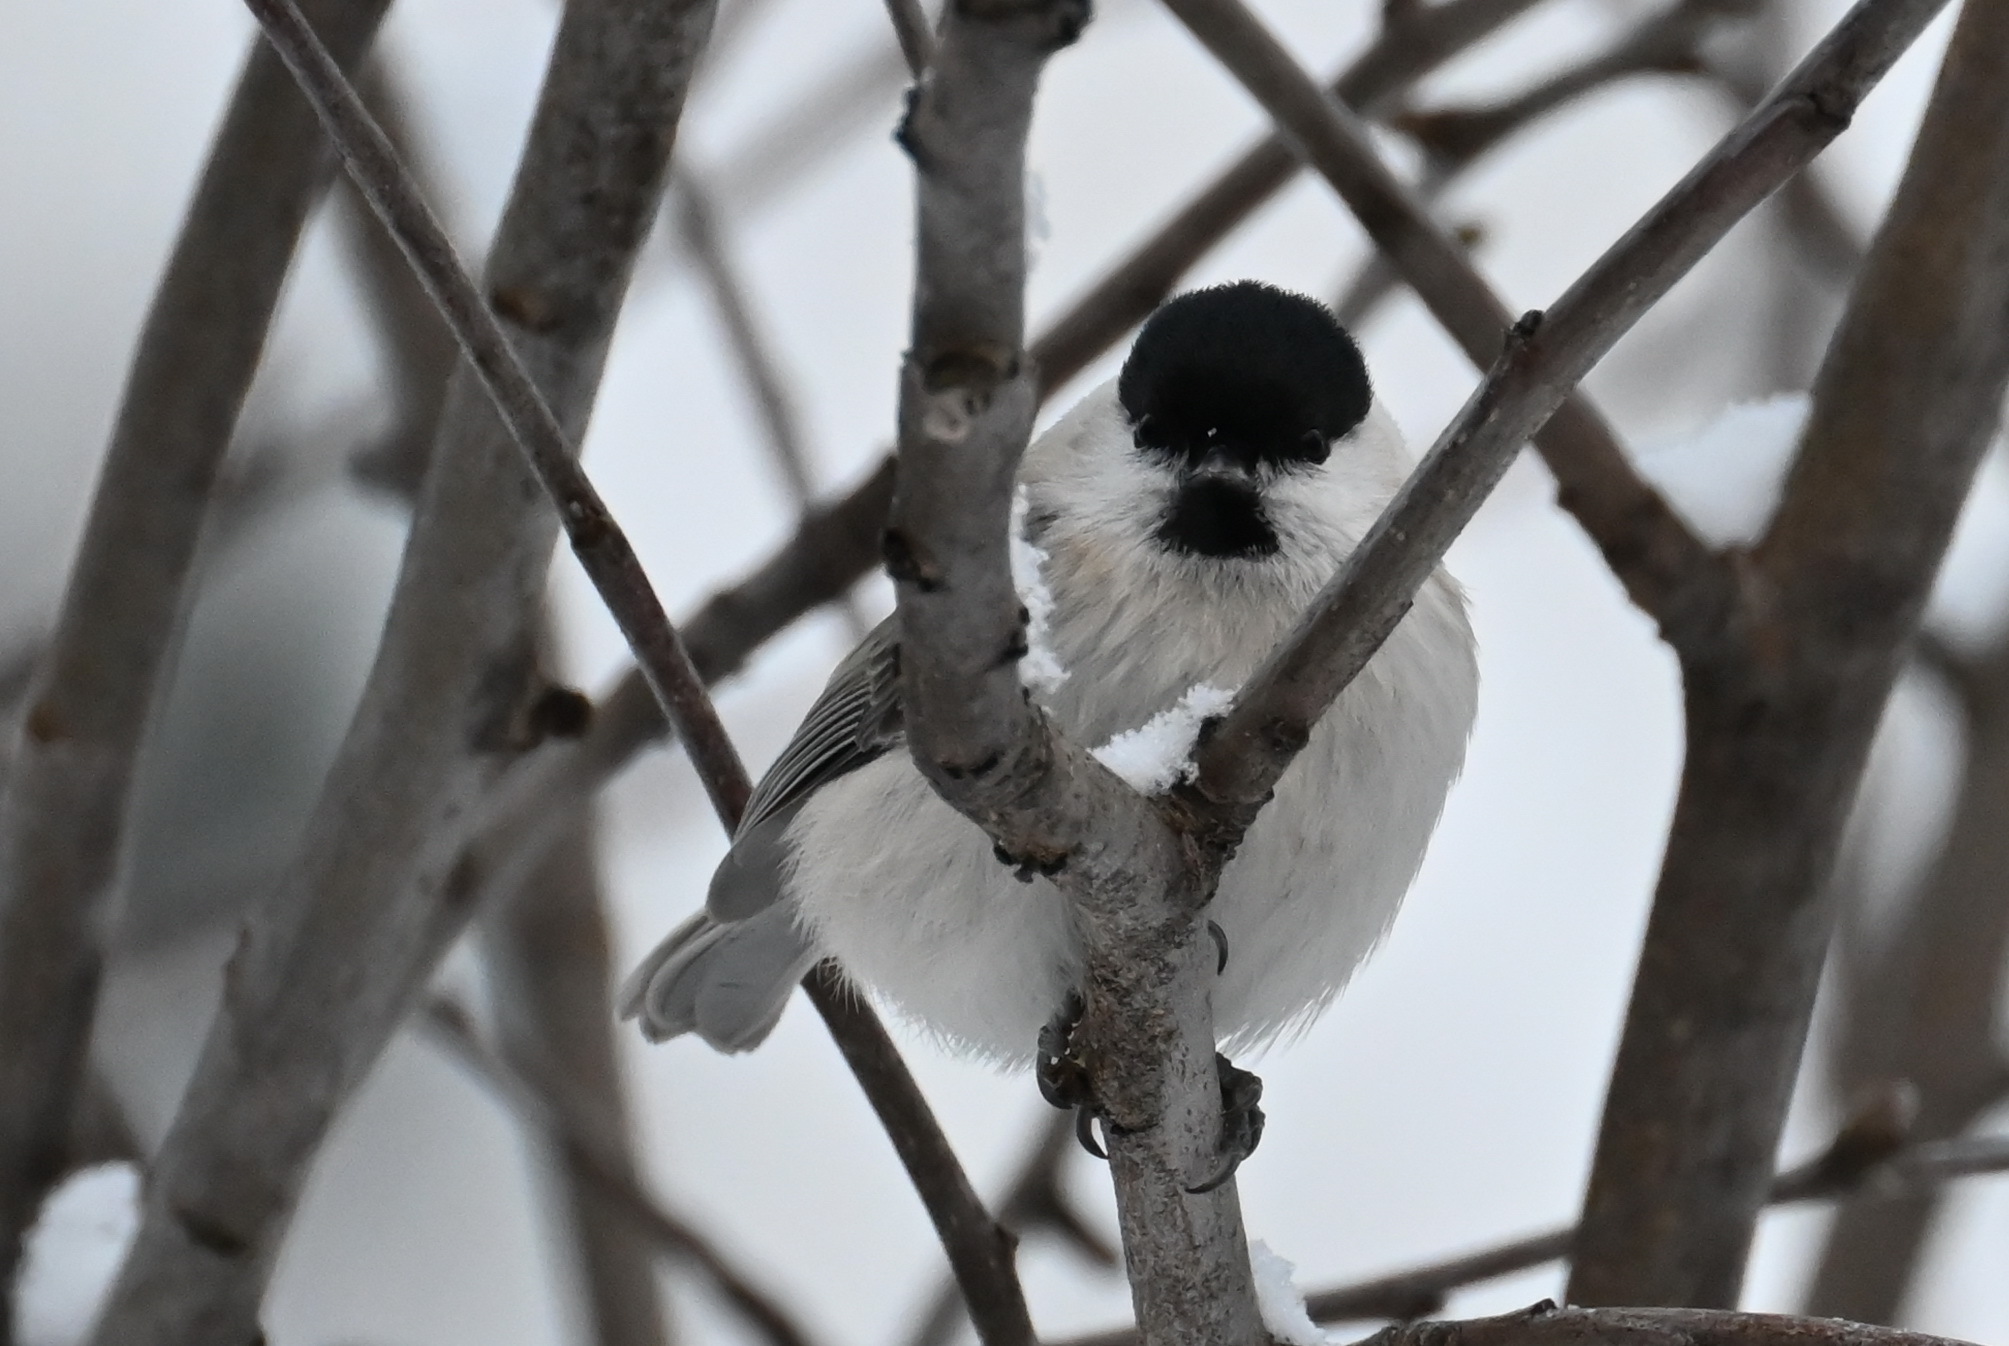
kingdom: Animalia
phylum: Chordata
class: Aves
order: Passeriformes
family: Paridae
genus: Poecile
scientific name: Poecile montanus
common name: Willow tit
